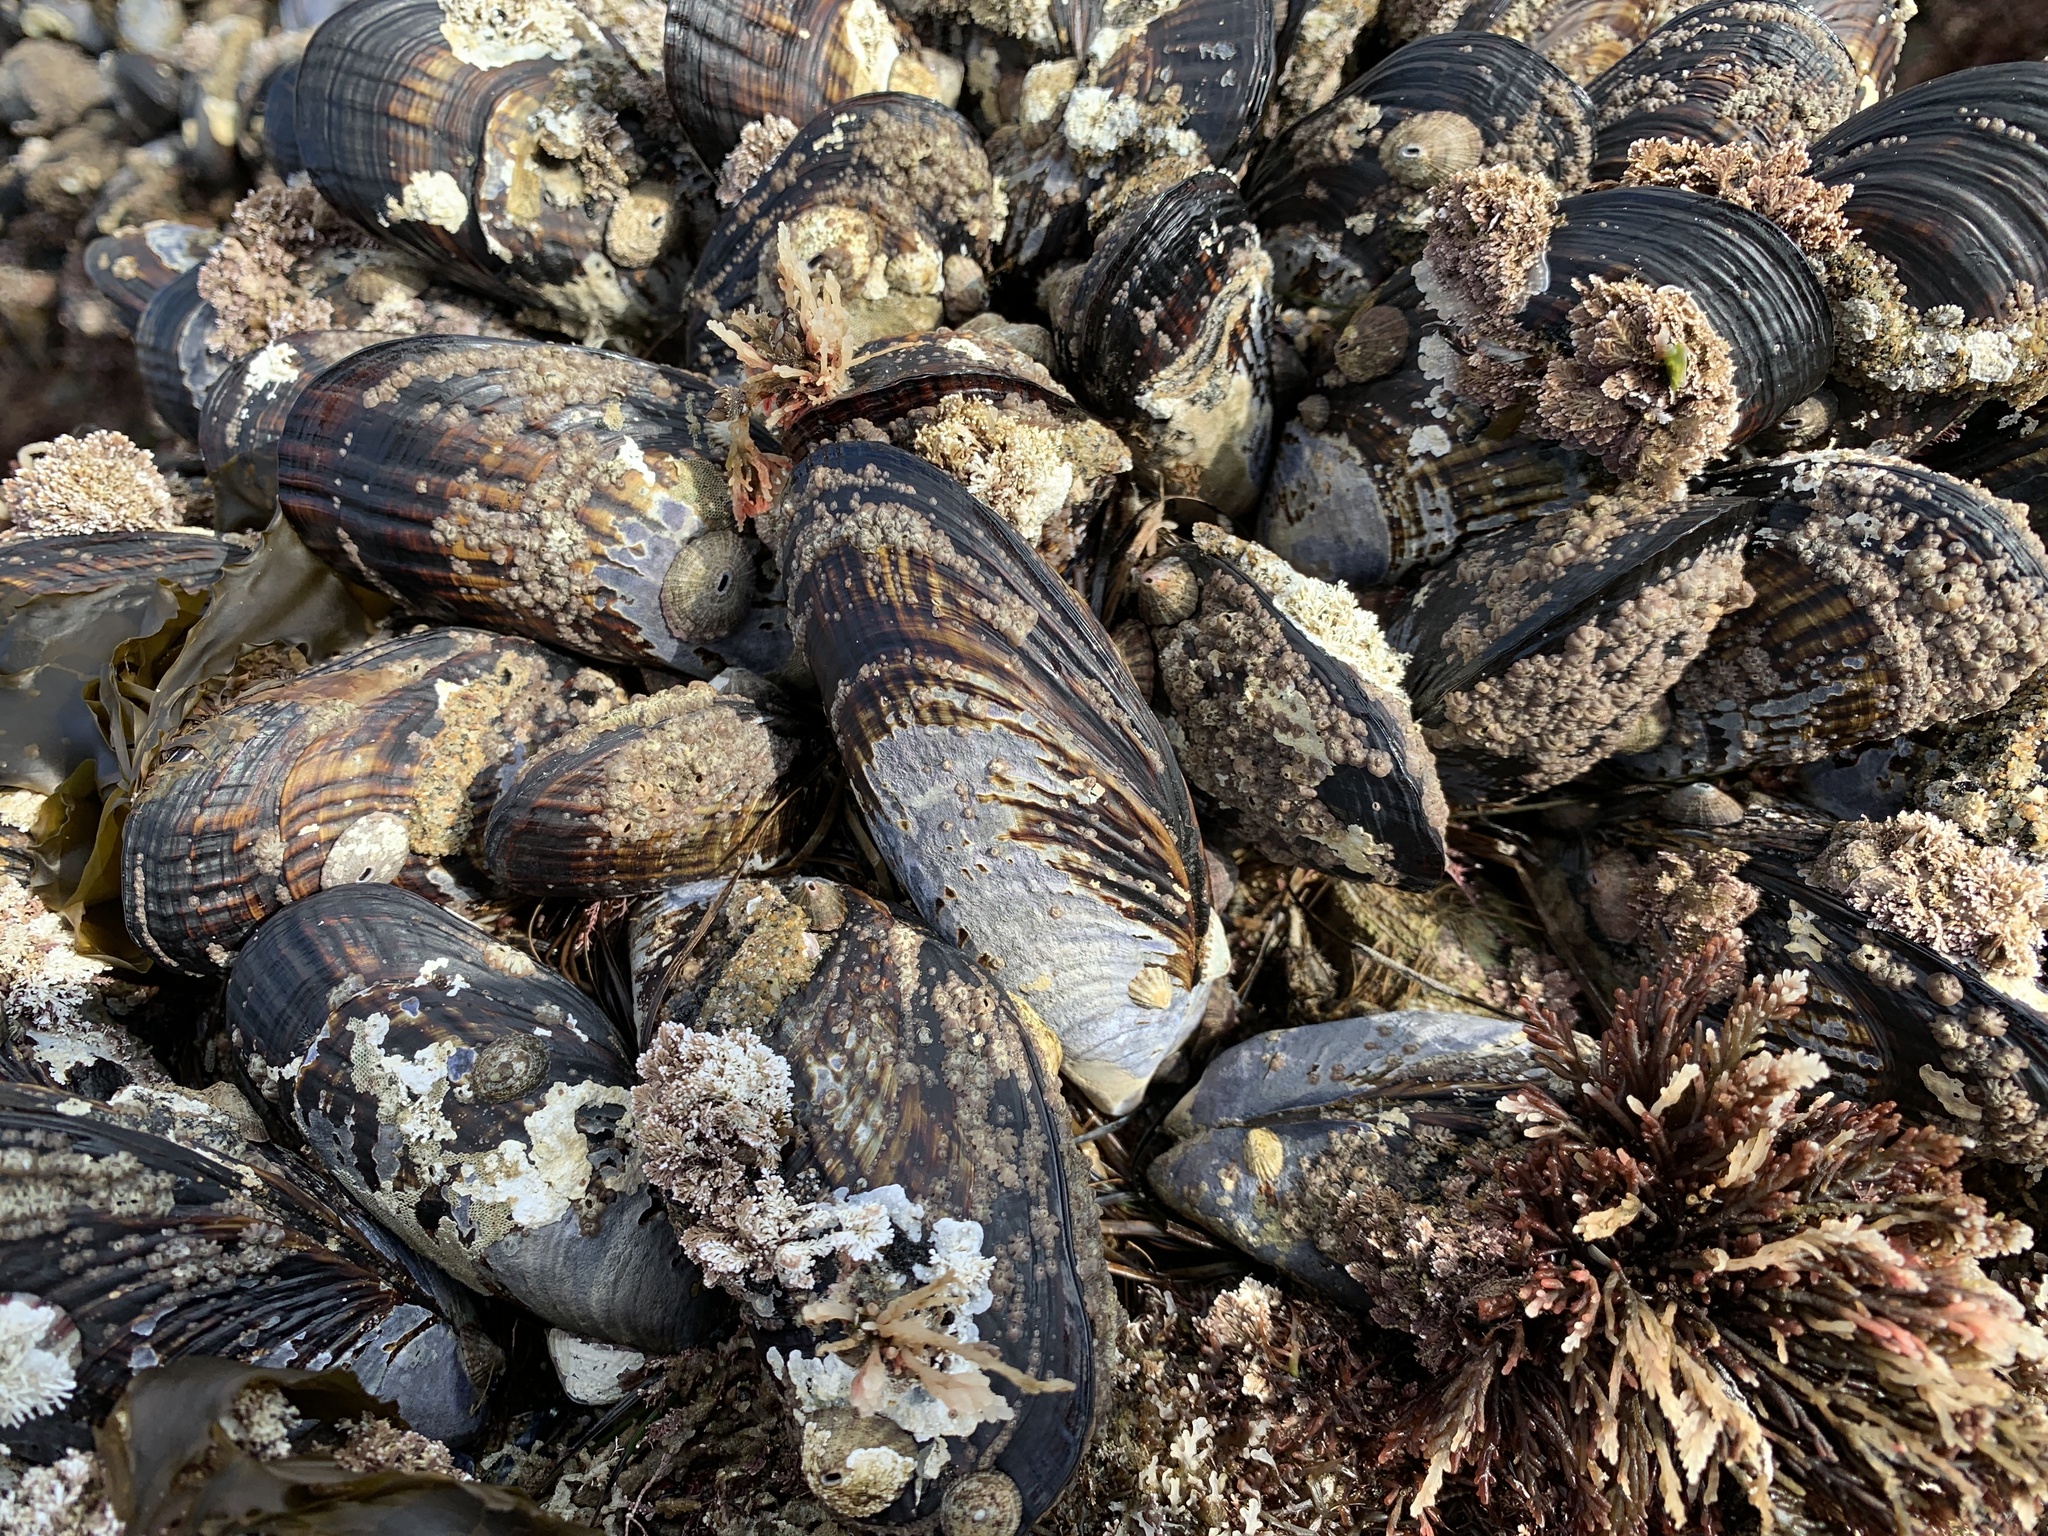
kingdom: Animalia
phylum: Mollusca
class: Bivalvia
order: Mytilida
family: Mytilidae
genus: Mytilus
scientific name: Mytilus californianus
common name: California mussel
